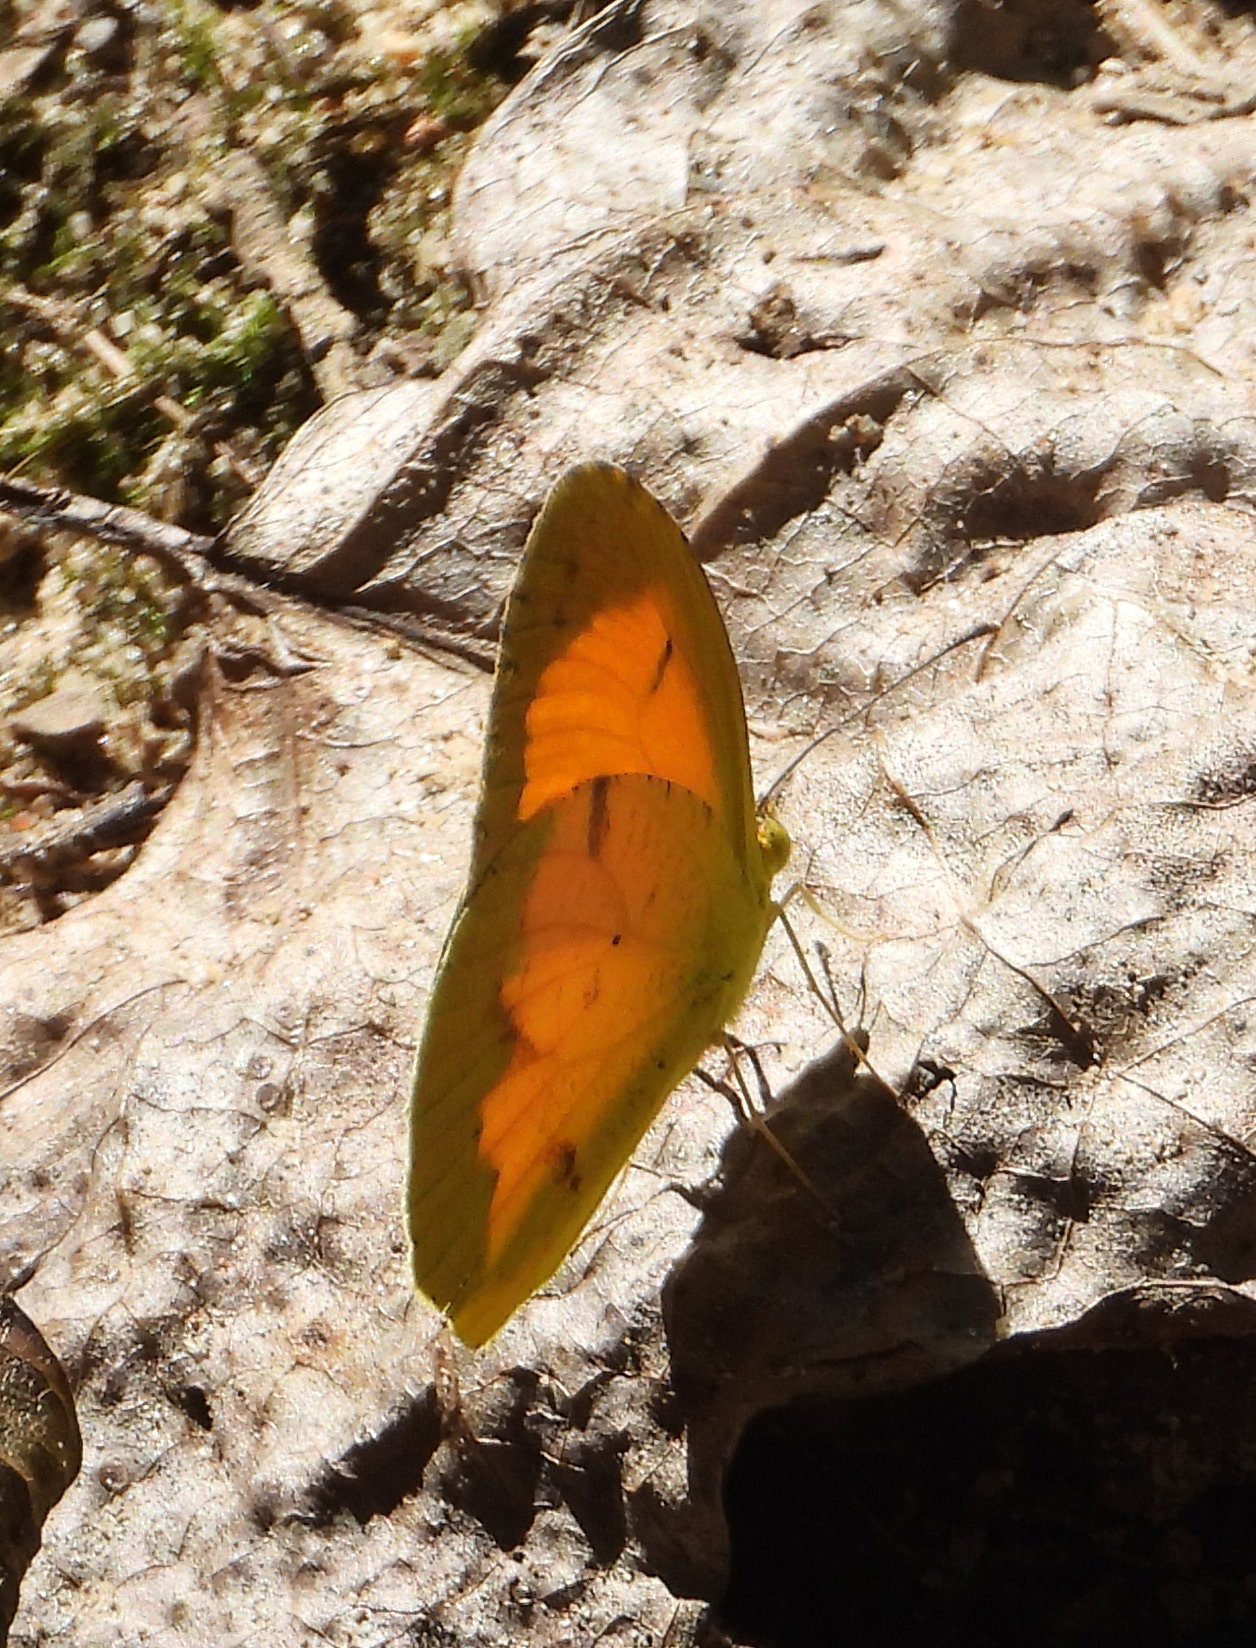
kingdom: Animalia
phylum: Arthropoda
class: Insecta
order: Lepidoptera
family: Pieridae
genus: Abaeis
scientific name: Abaeis nicippe
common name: Sleepy orange
